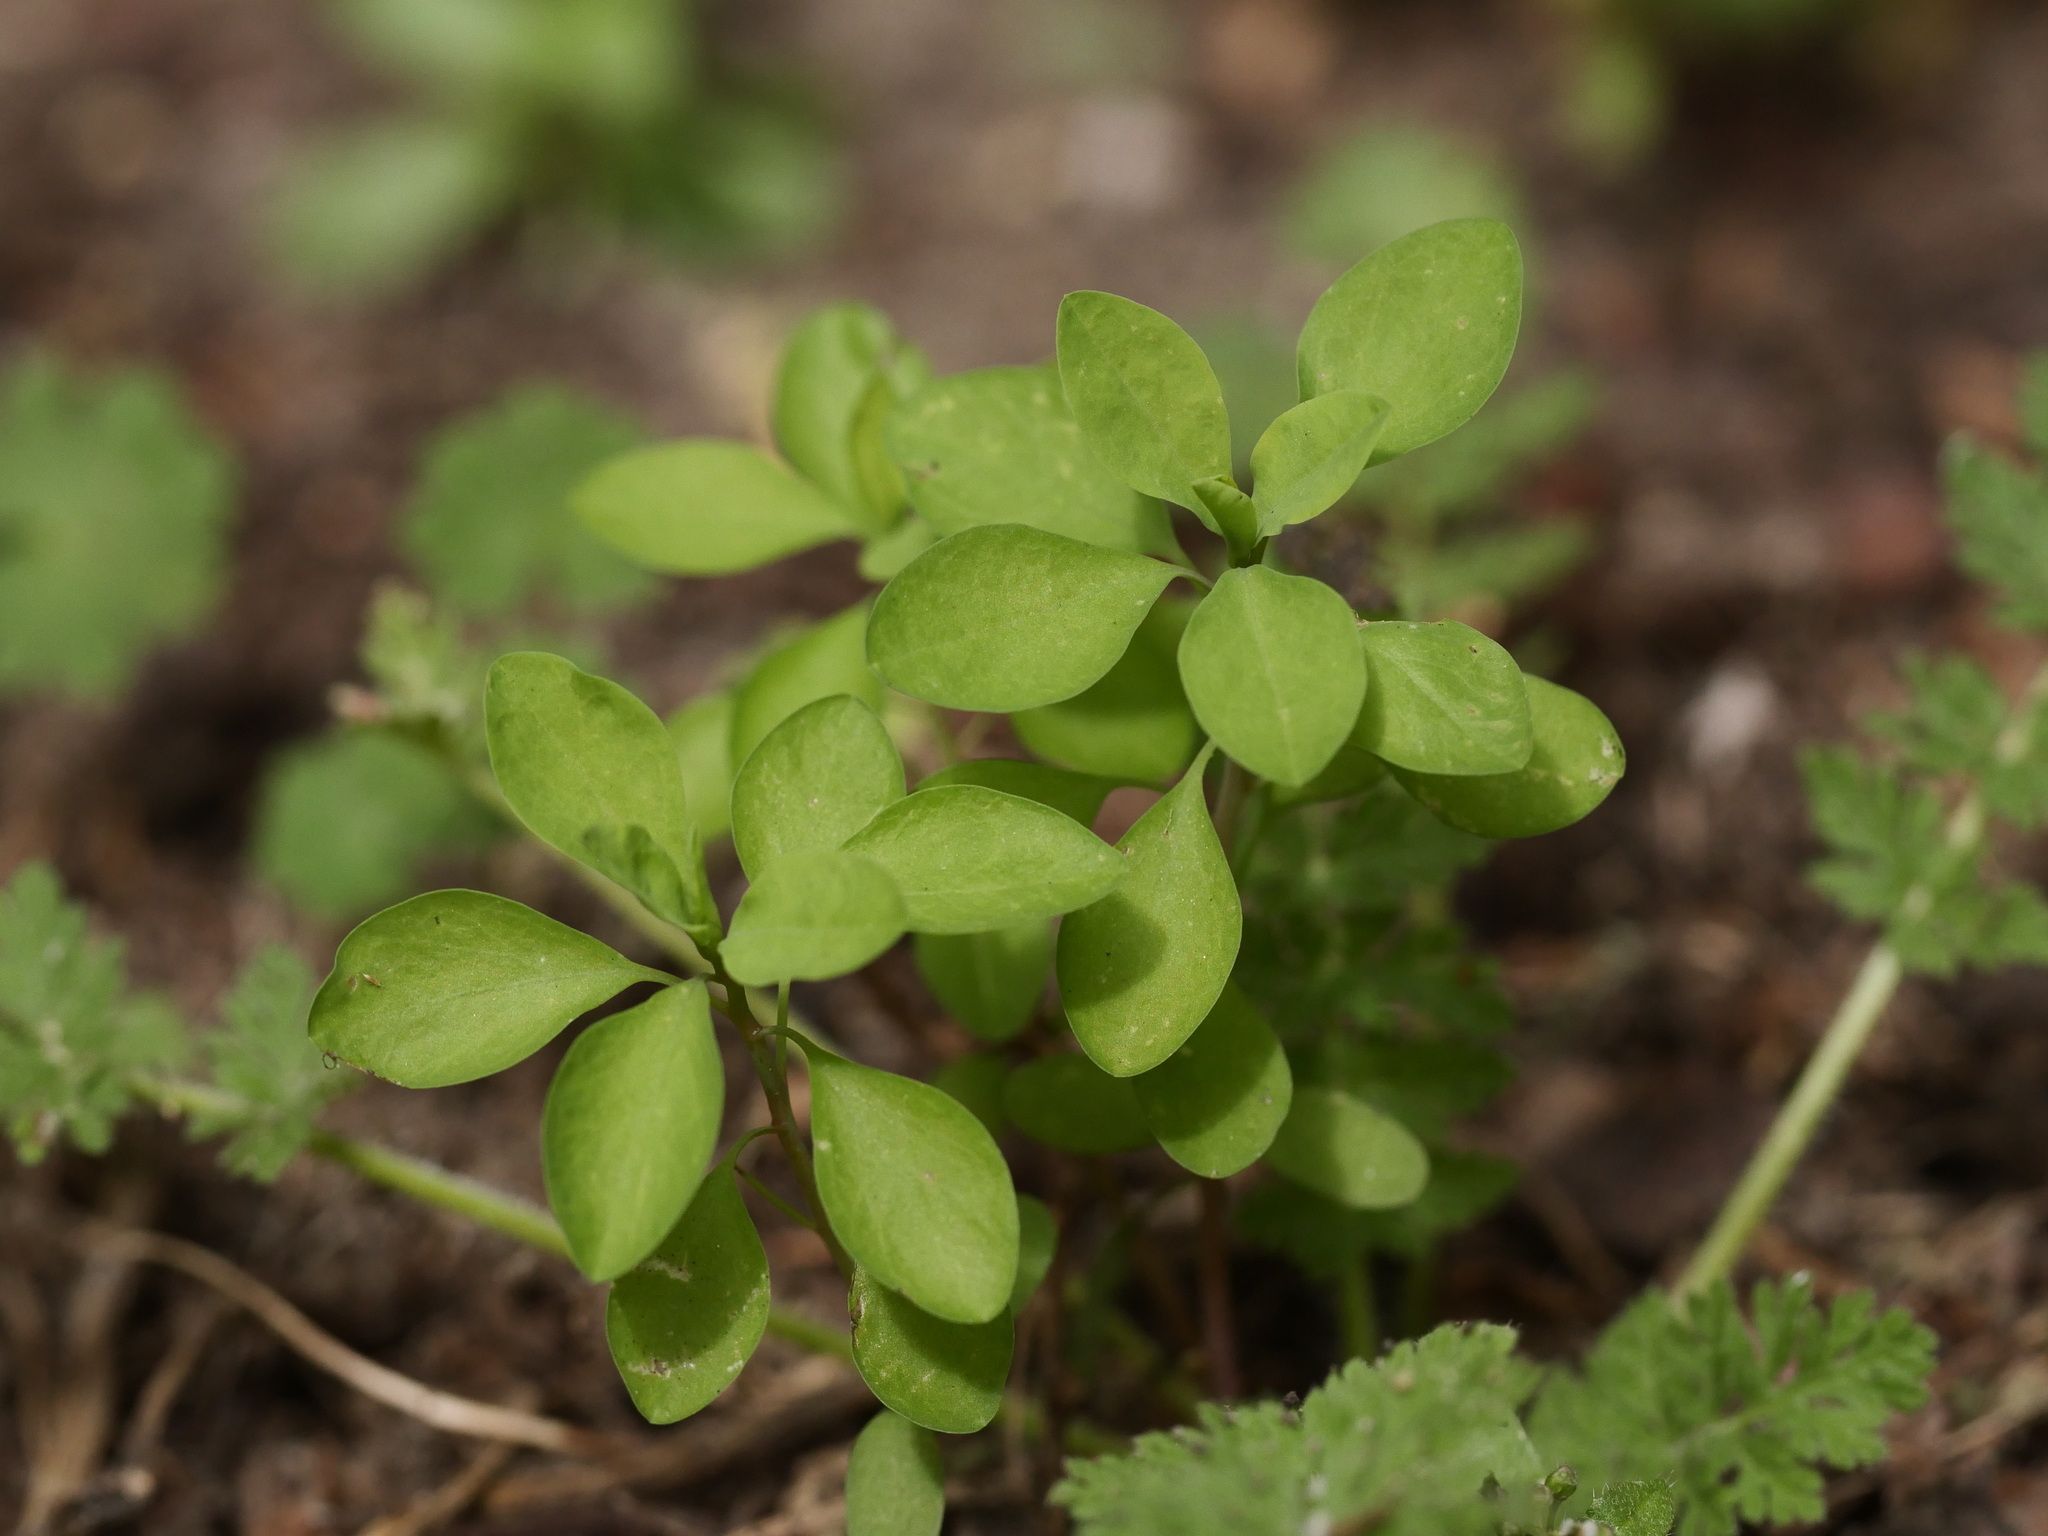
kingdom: Plantae
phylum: Tracheophyta
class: Magnoliopsida
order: Malpighiales
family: Euphorbiaceae
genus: Euphorbia
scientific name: Euphorbia peplus
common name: Petty spurge
